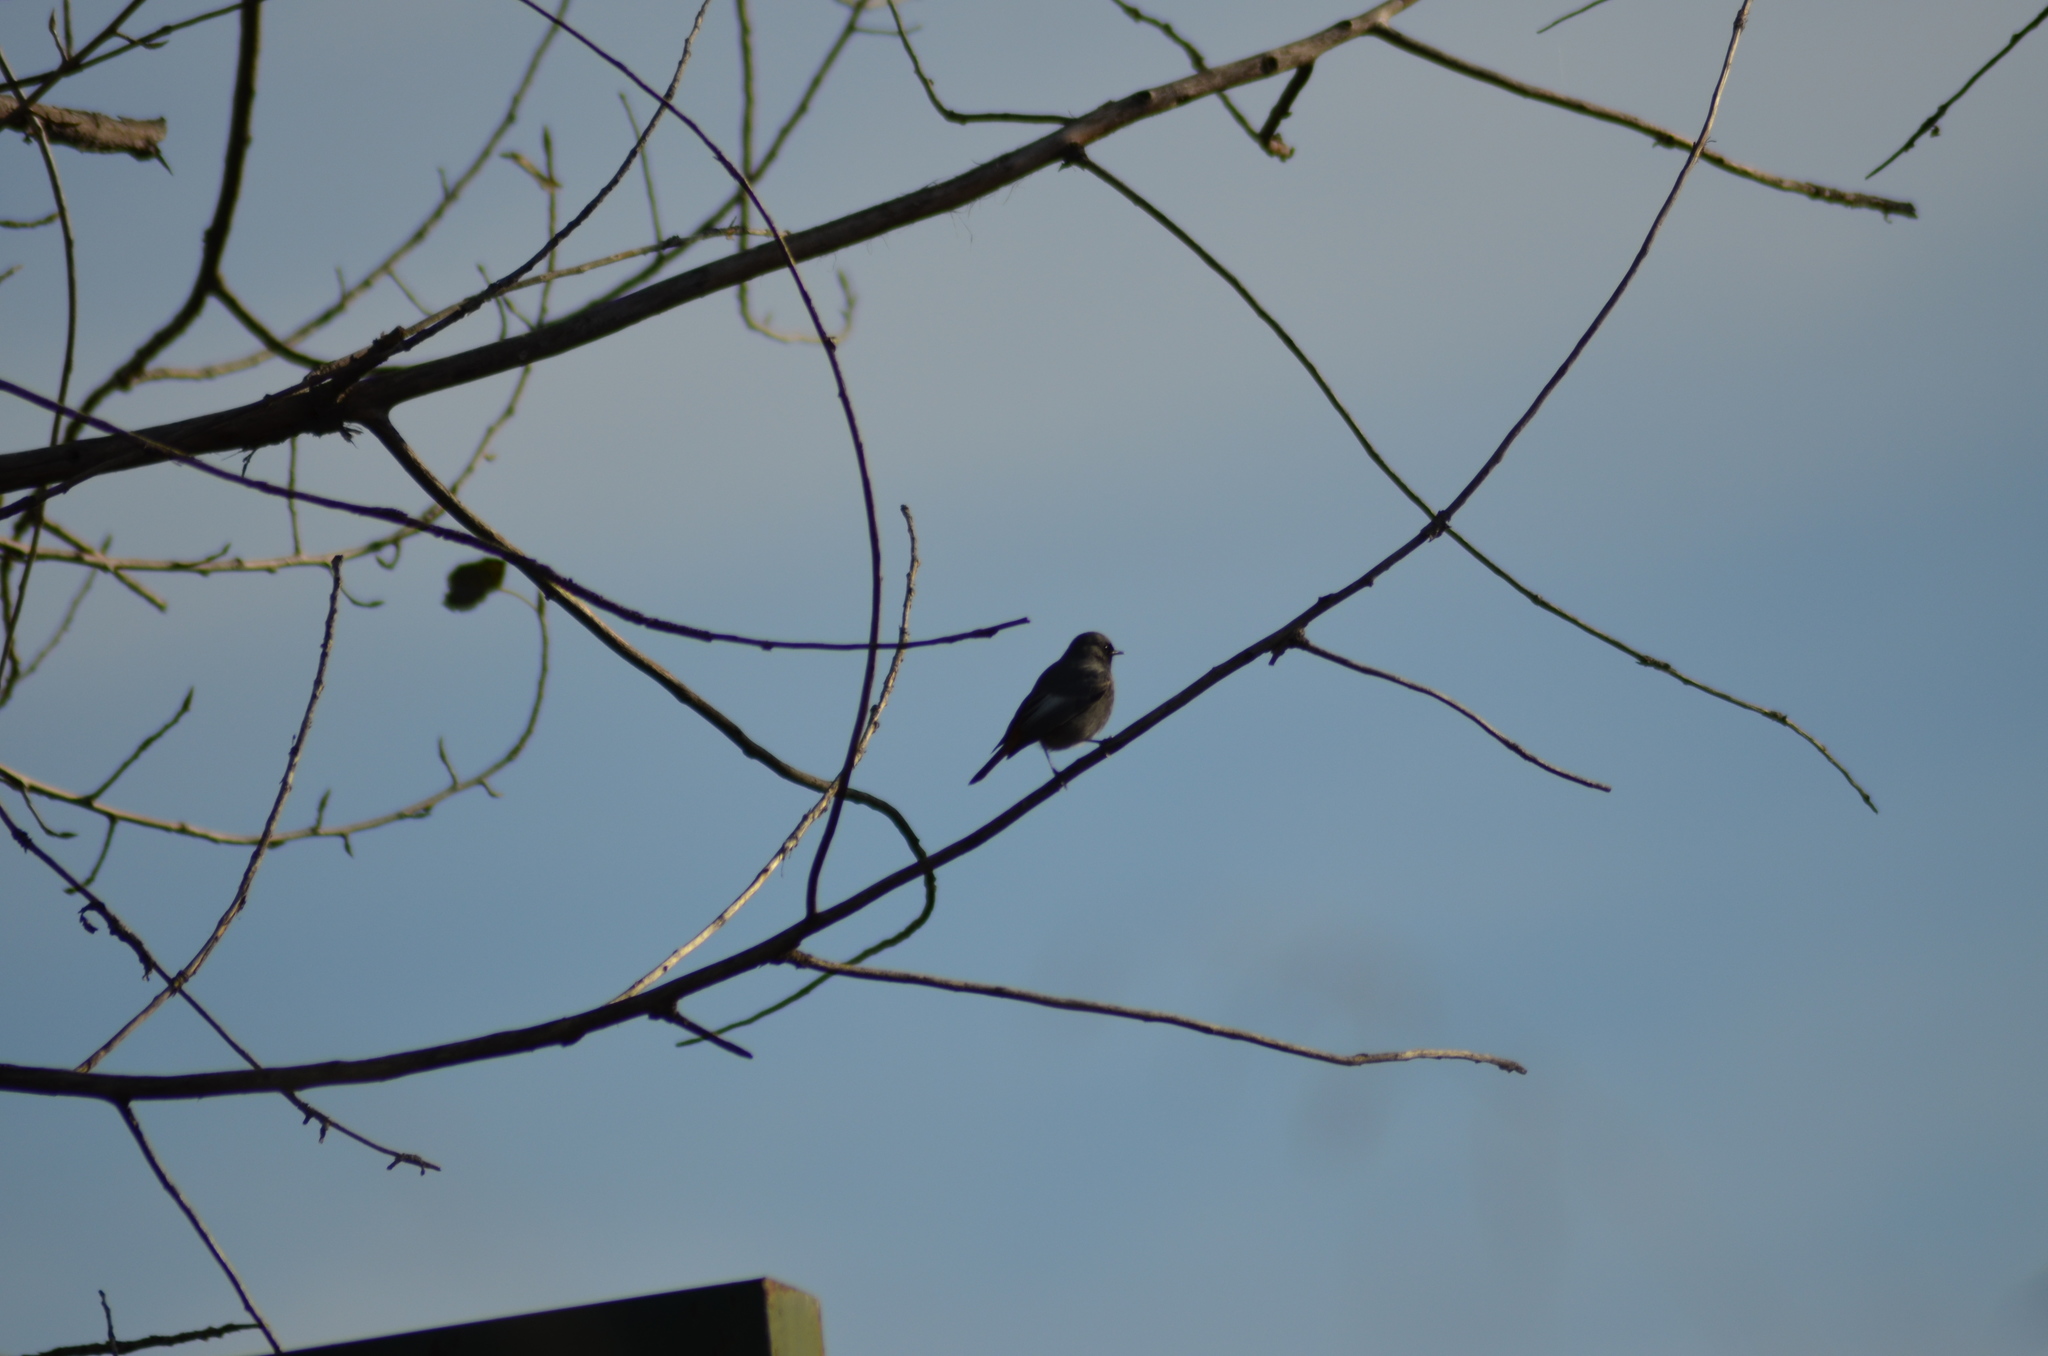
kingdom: Animalia
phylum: Chordata
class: Aves
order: Passeriformes
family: Muscicapidae
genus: Phoenicurus
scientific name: Phoenicurus ochruros
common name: Black redstart
